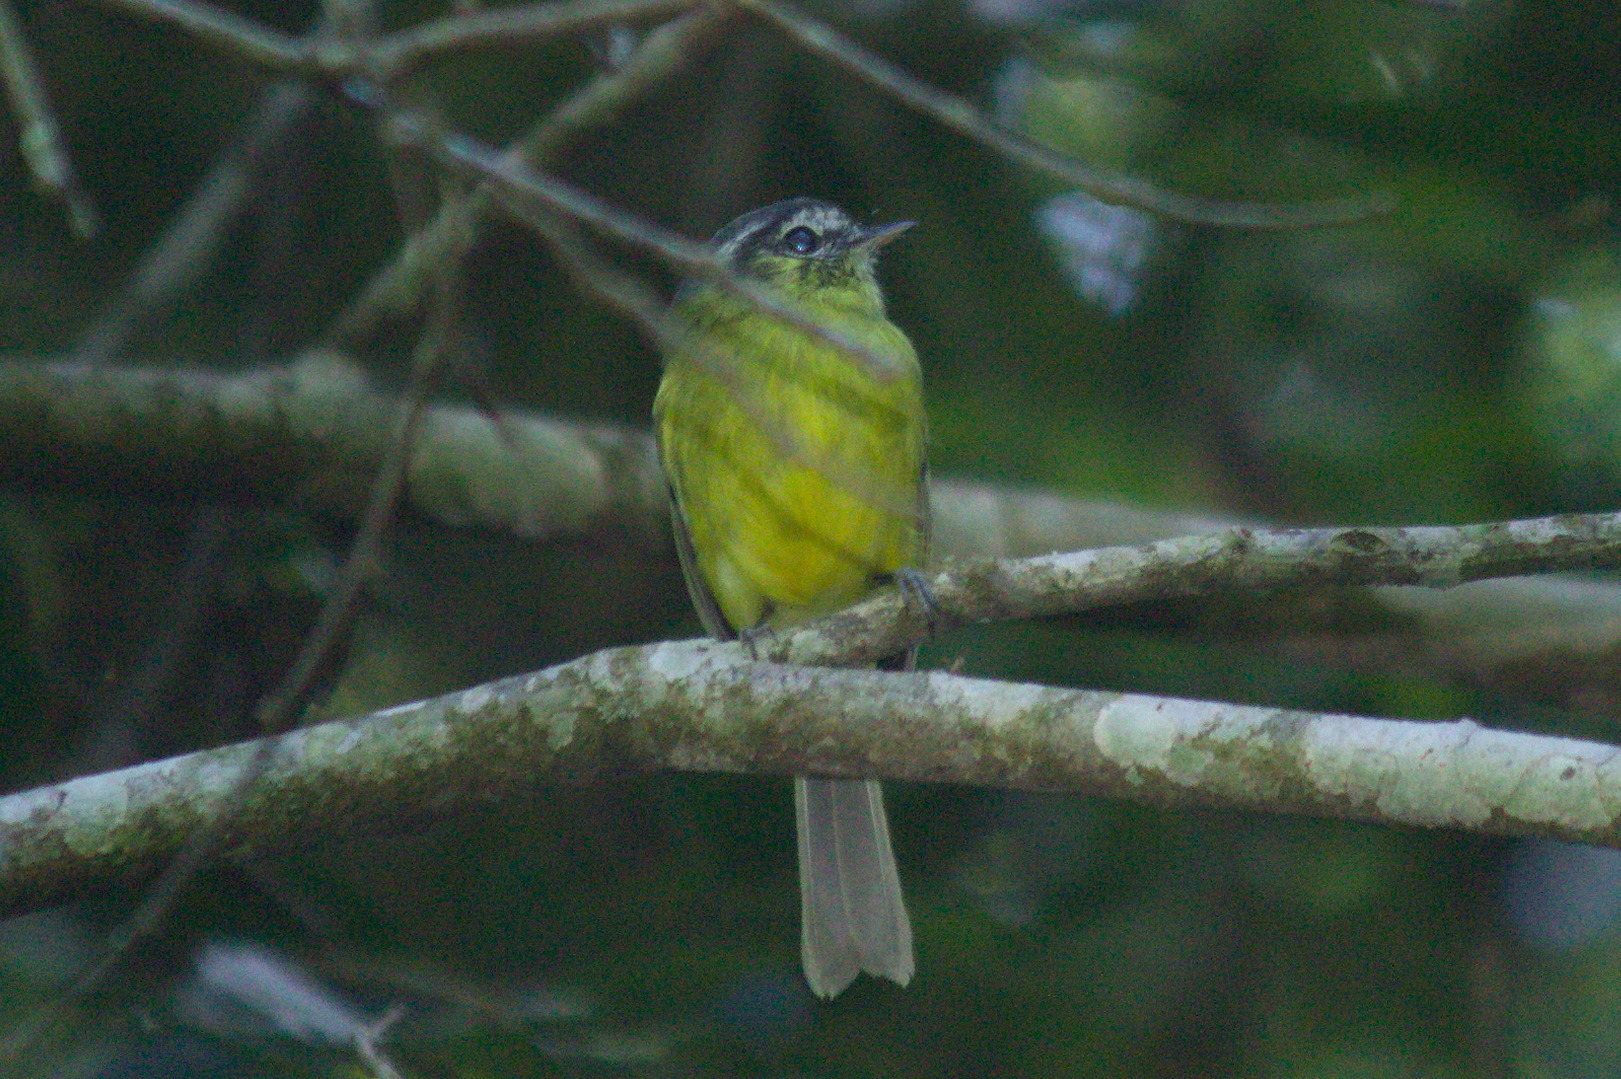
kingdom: Animalia
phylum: Chordata
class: Aves
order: Passeriformes
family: Tyrannidae
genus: Phylloscartes
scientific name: Phylloscartes eximius
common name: Southern bristle-tyrant
